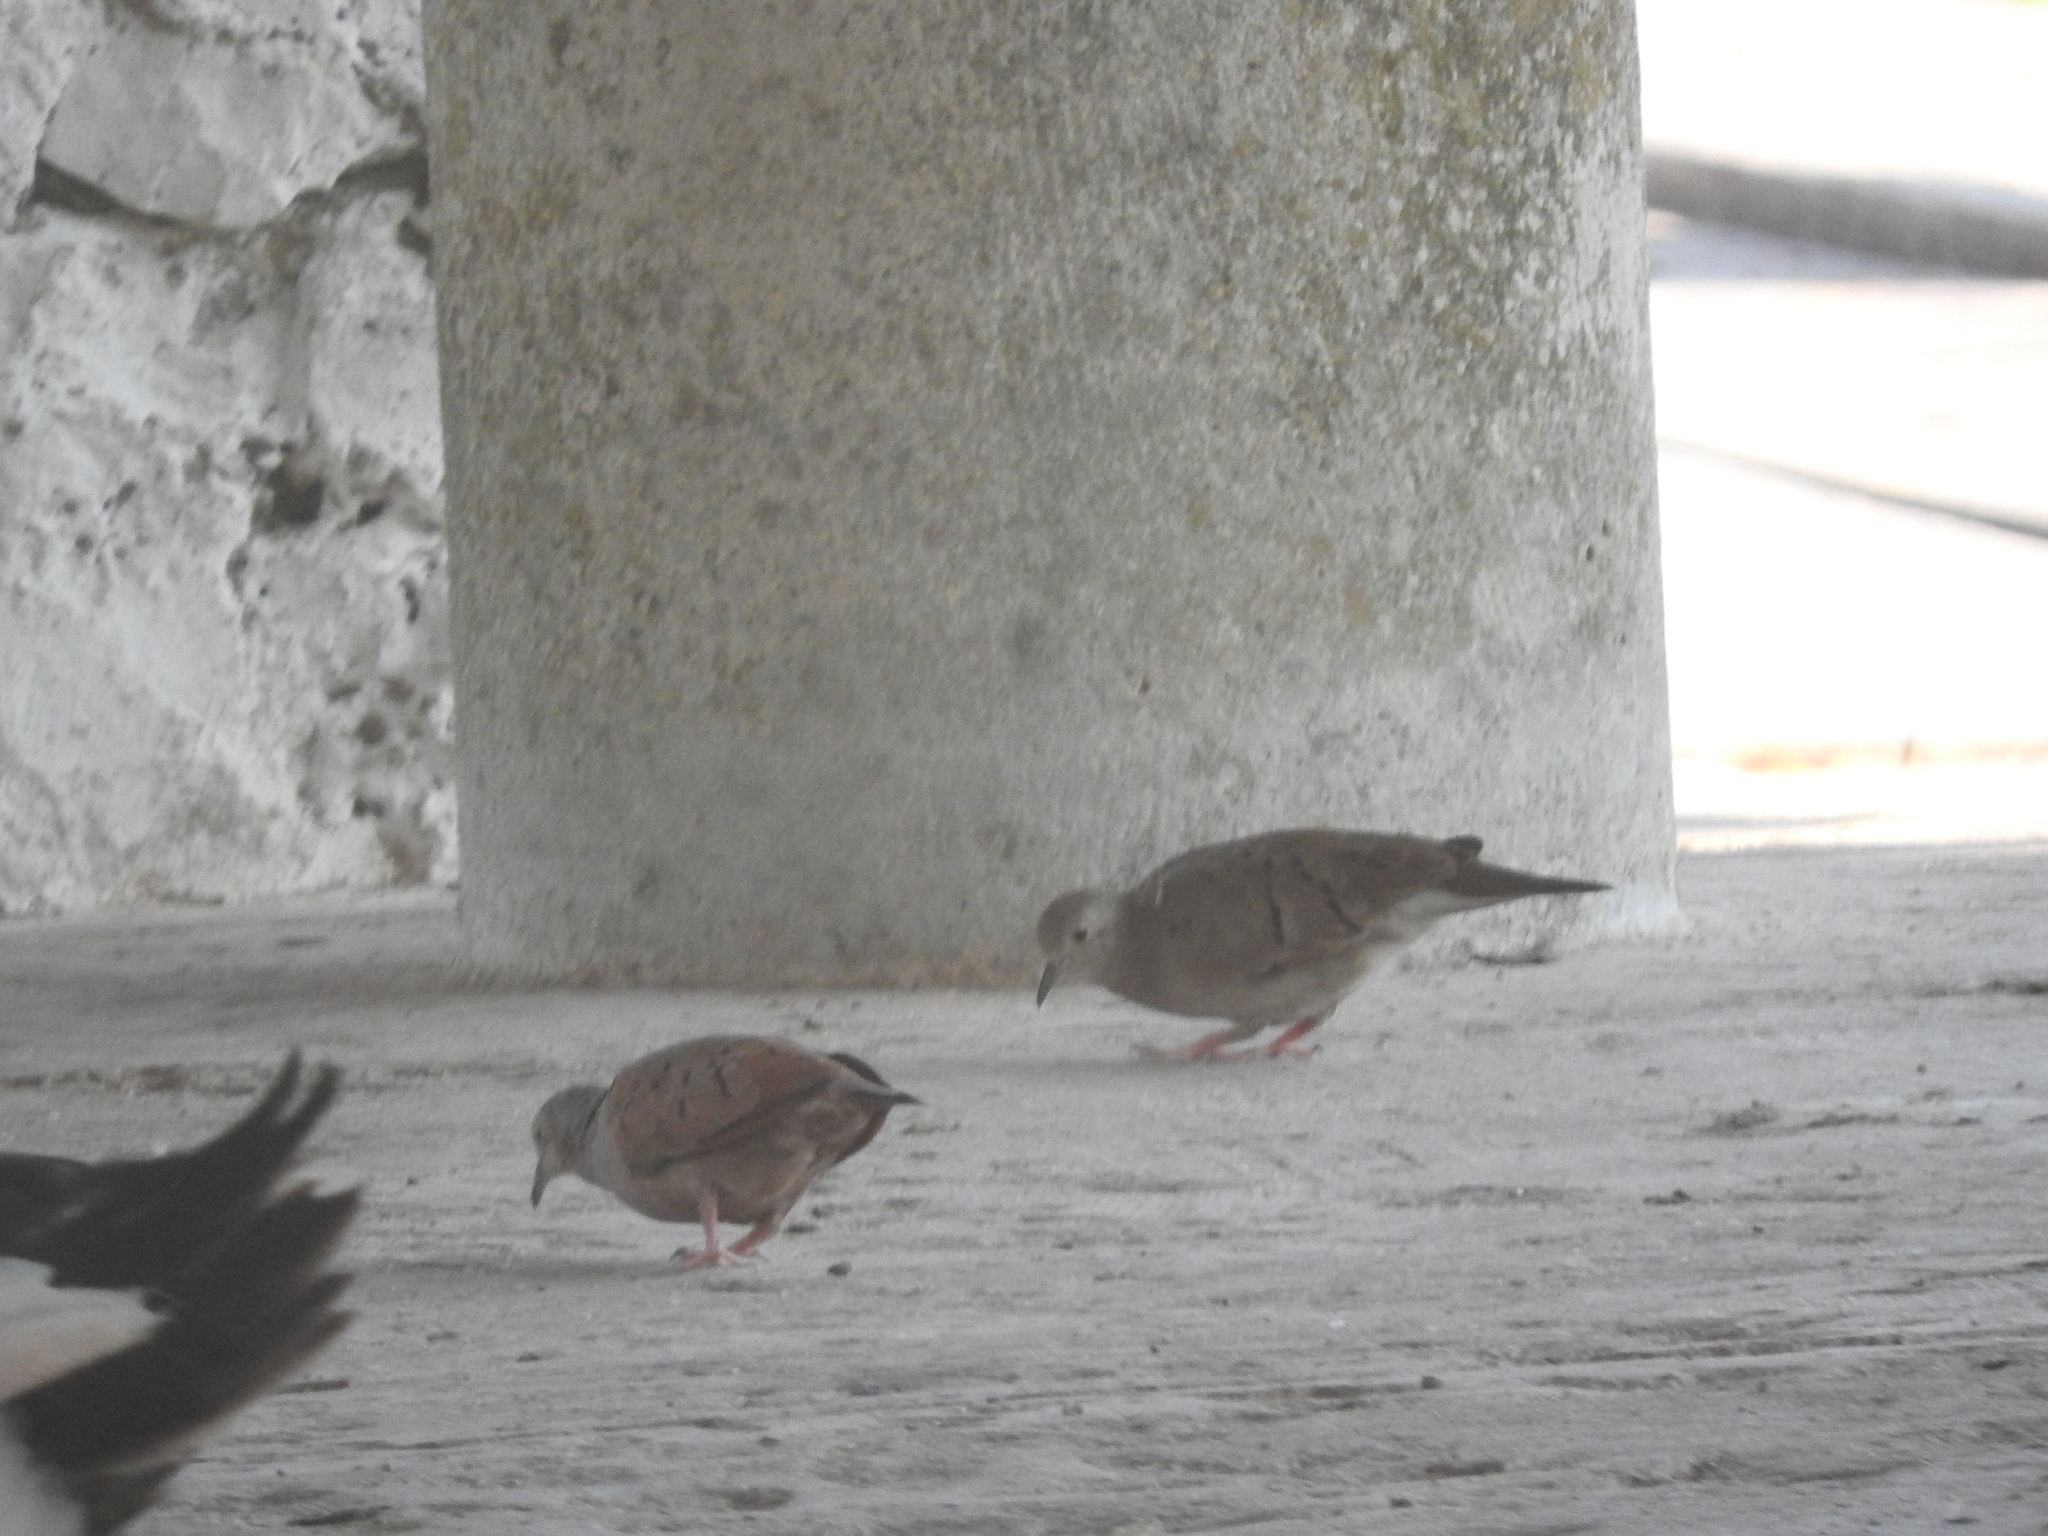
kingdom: Animalia
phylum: Chordata
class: Aves
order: Columbiformes
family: Columbidae
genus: Columbina
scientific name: Columbina talpacoti
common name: Ruddy ground dove
